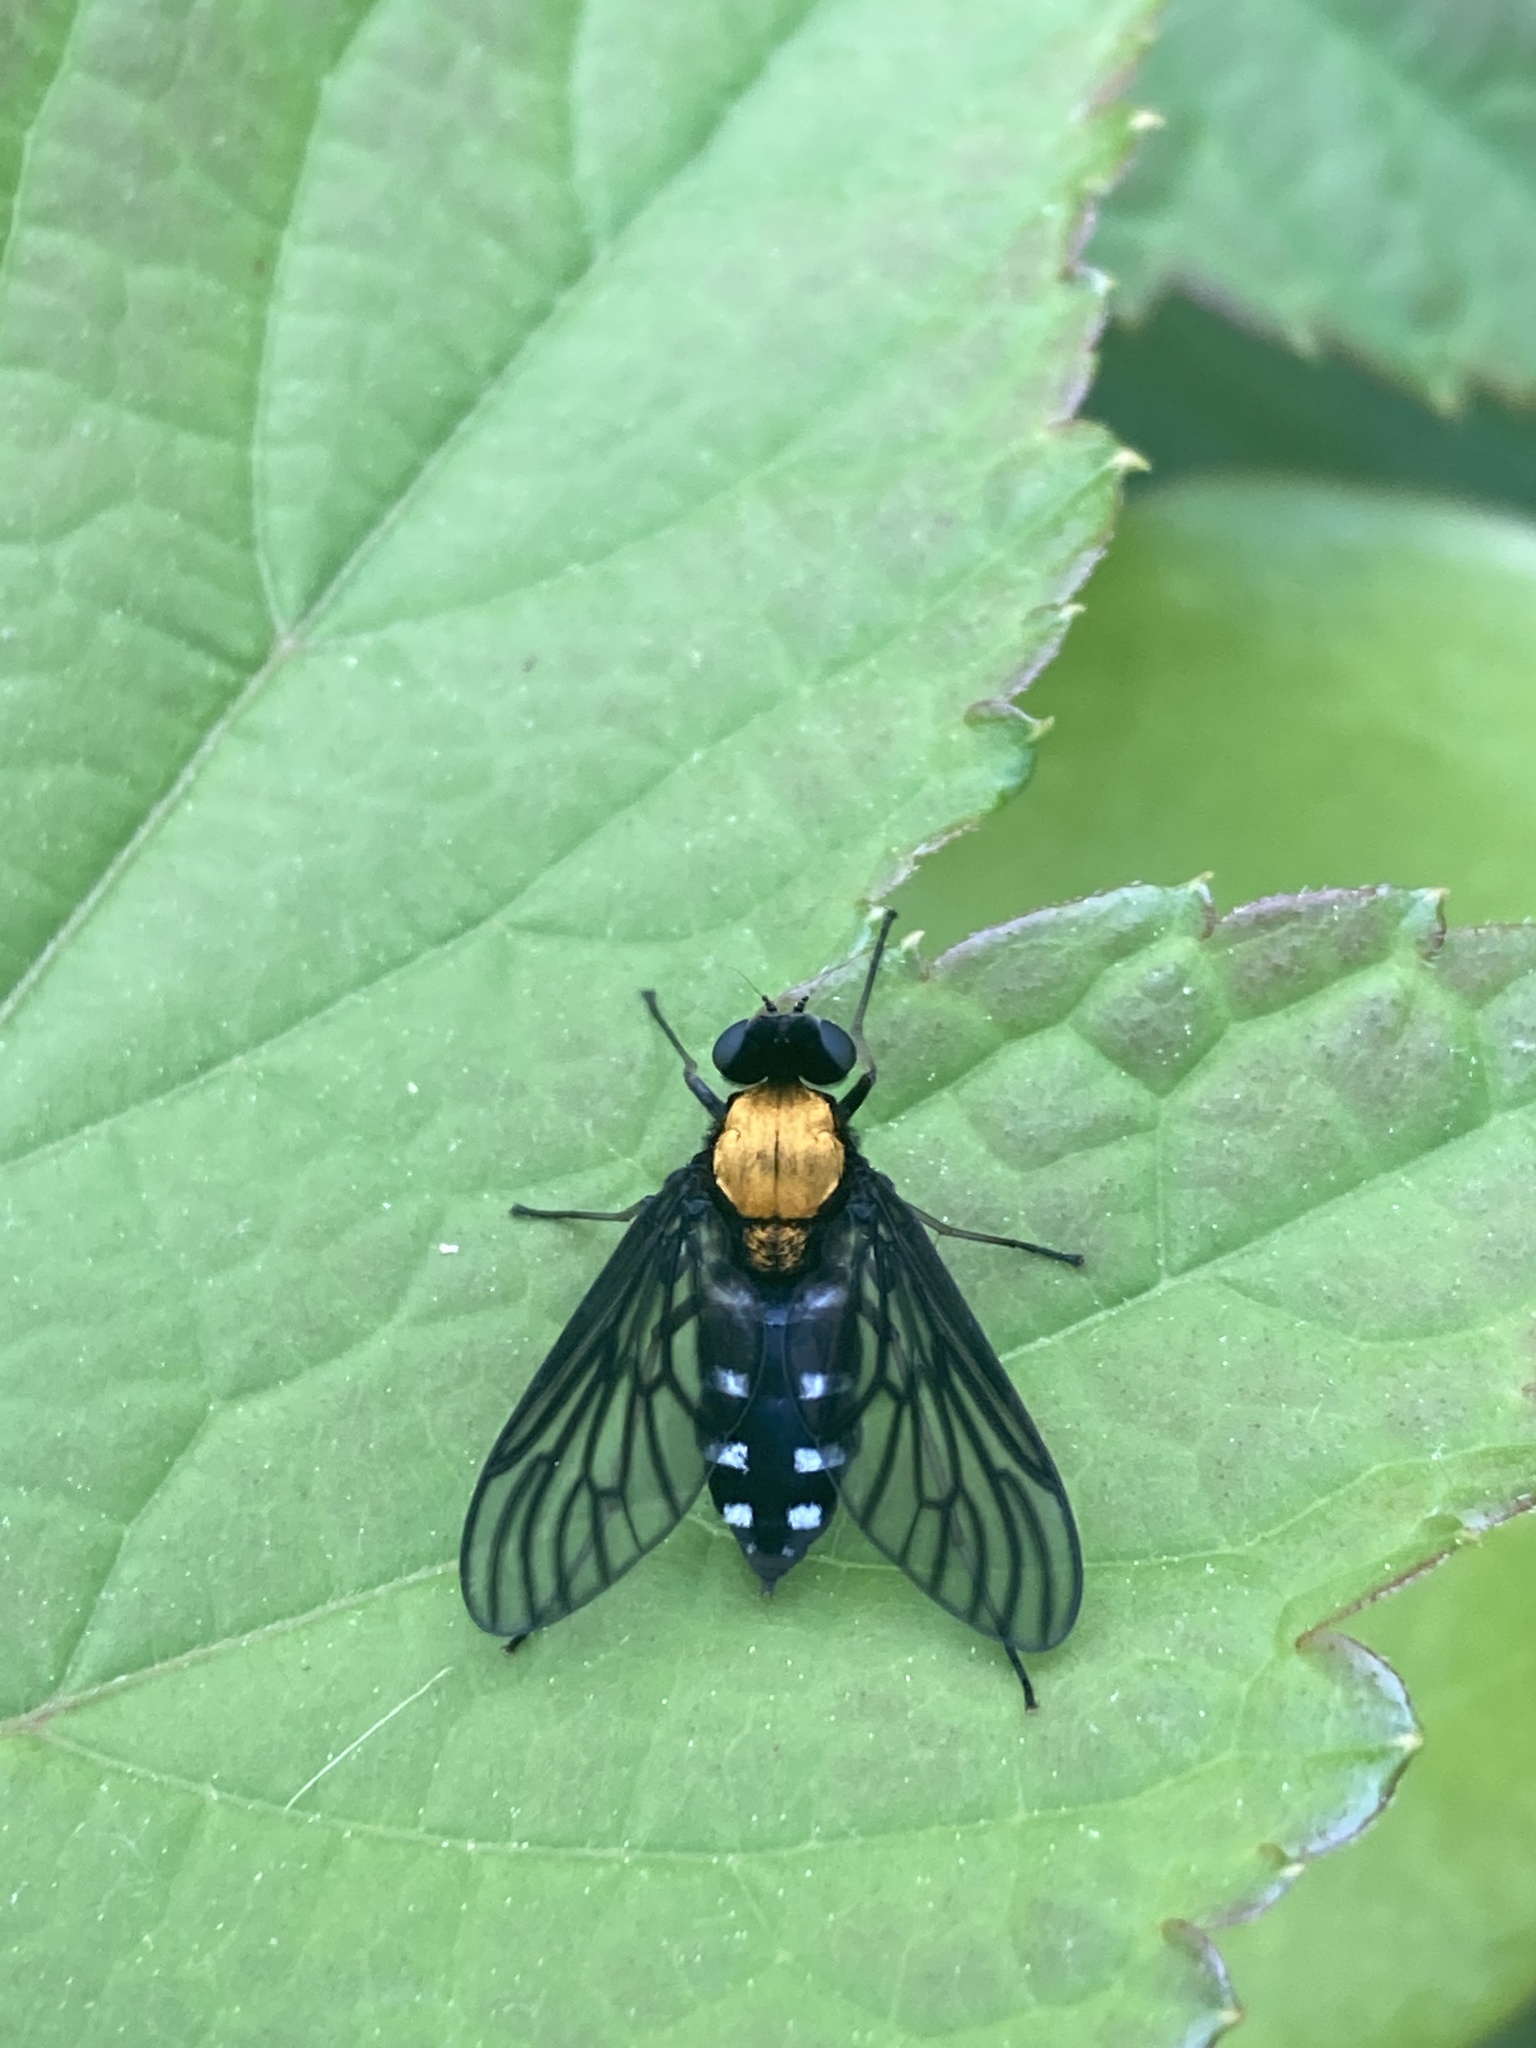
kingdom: Animalia
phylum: Arthropoda
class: Insecta
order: Diptera
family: Rhagionidae
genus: Chrysopilus
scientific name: Chrysopilus thoracicus
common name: Golden-backed snipe fly
